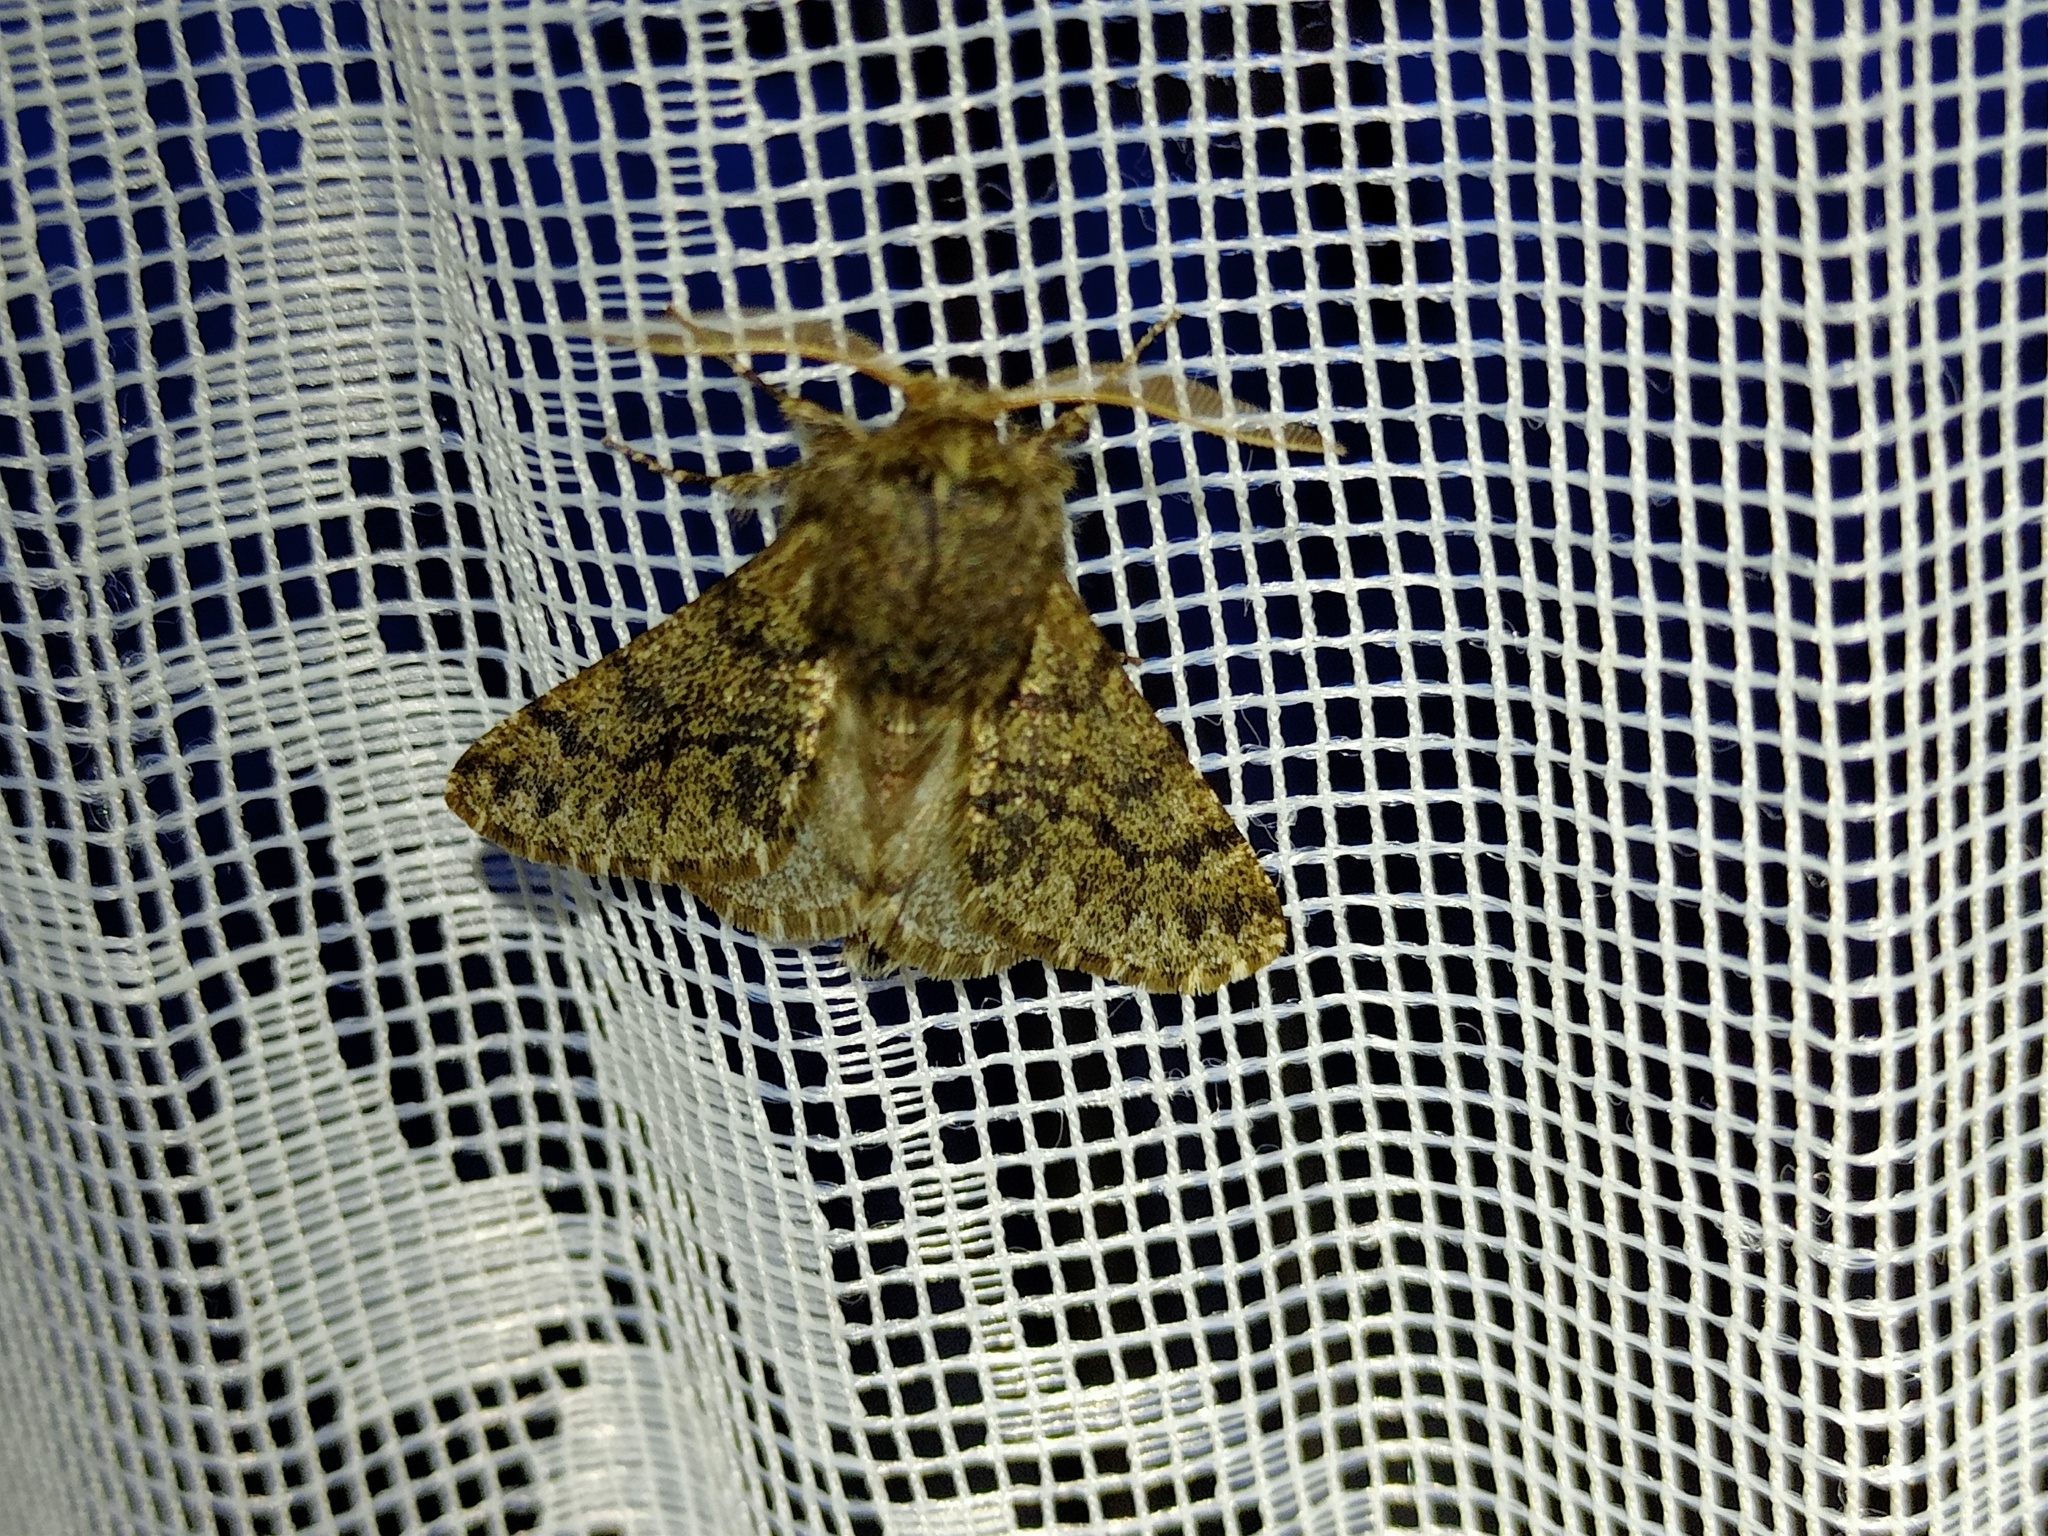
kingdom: Animalia
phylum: Arthropoda
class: Insecta
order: Lepidoptera
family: Geometridae
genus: Apocheima
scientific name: Apocheima hispidaria
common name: Small brindled beauty
